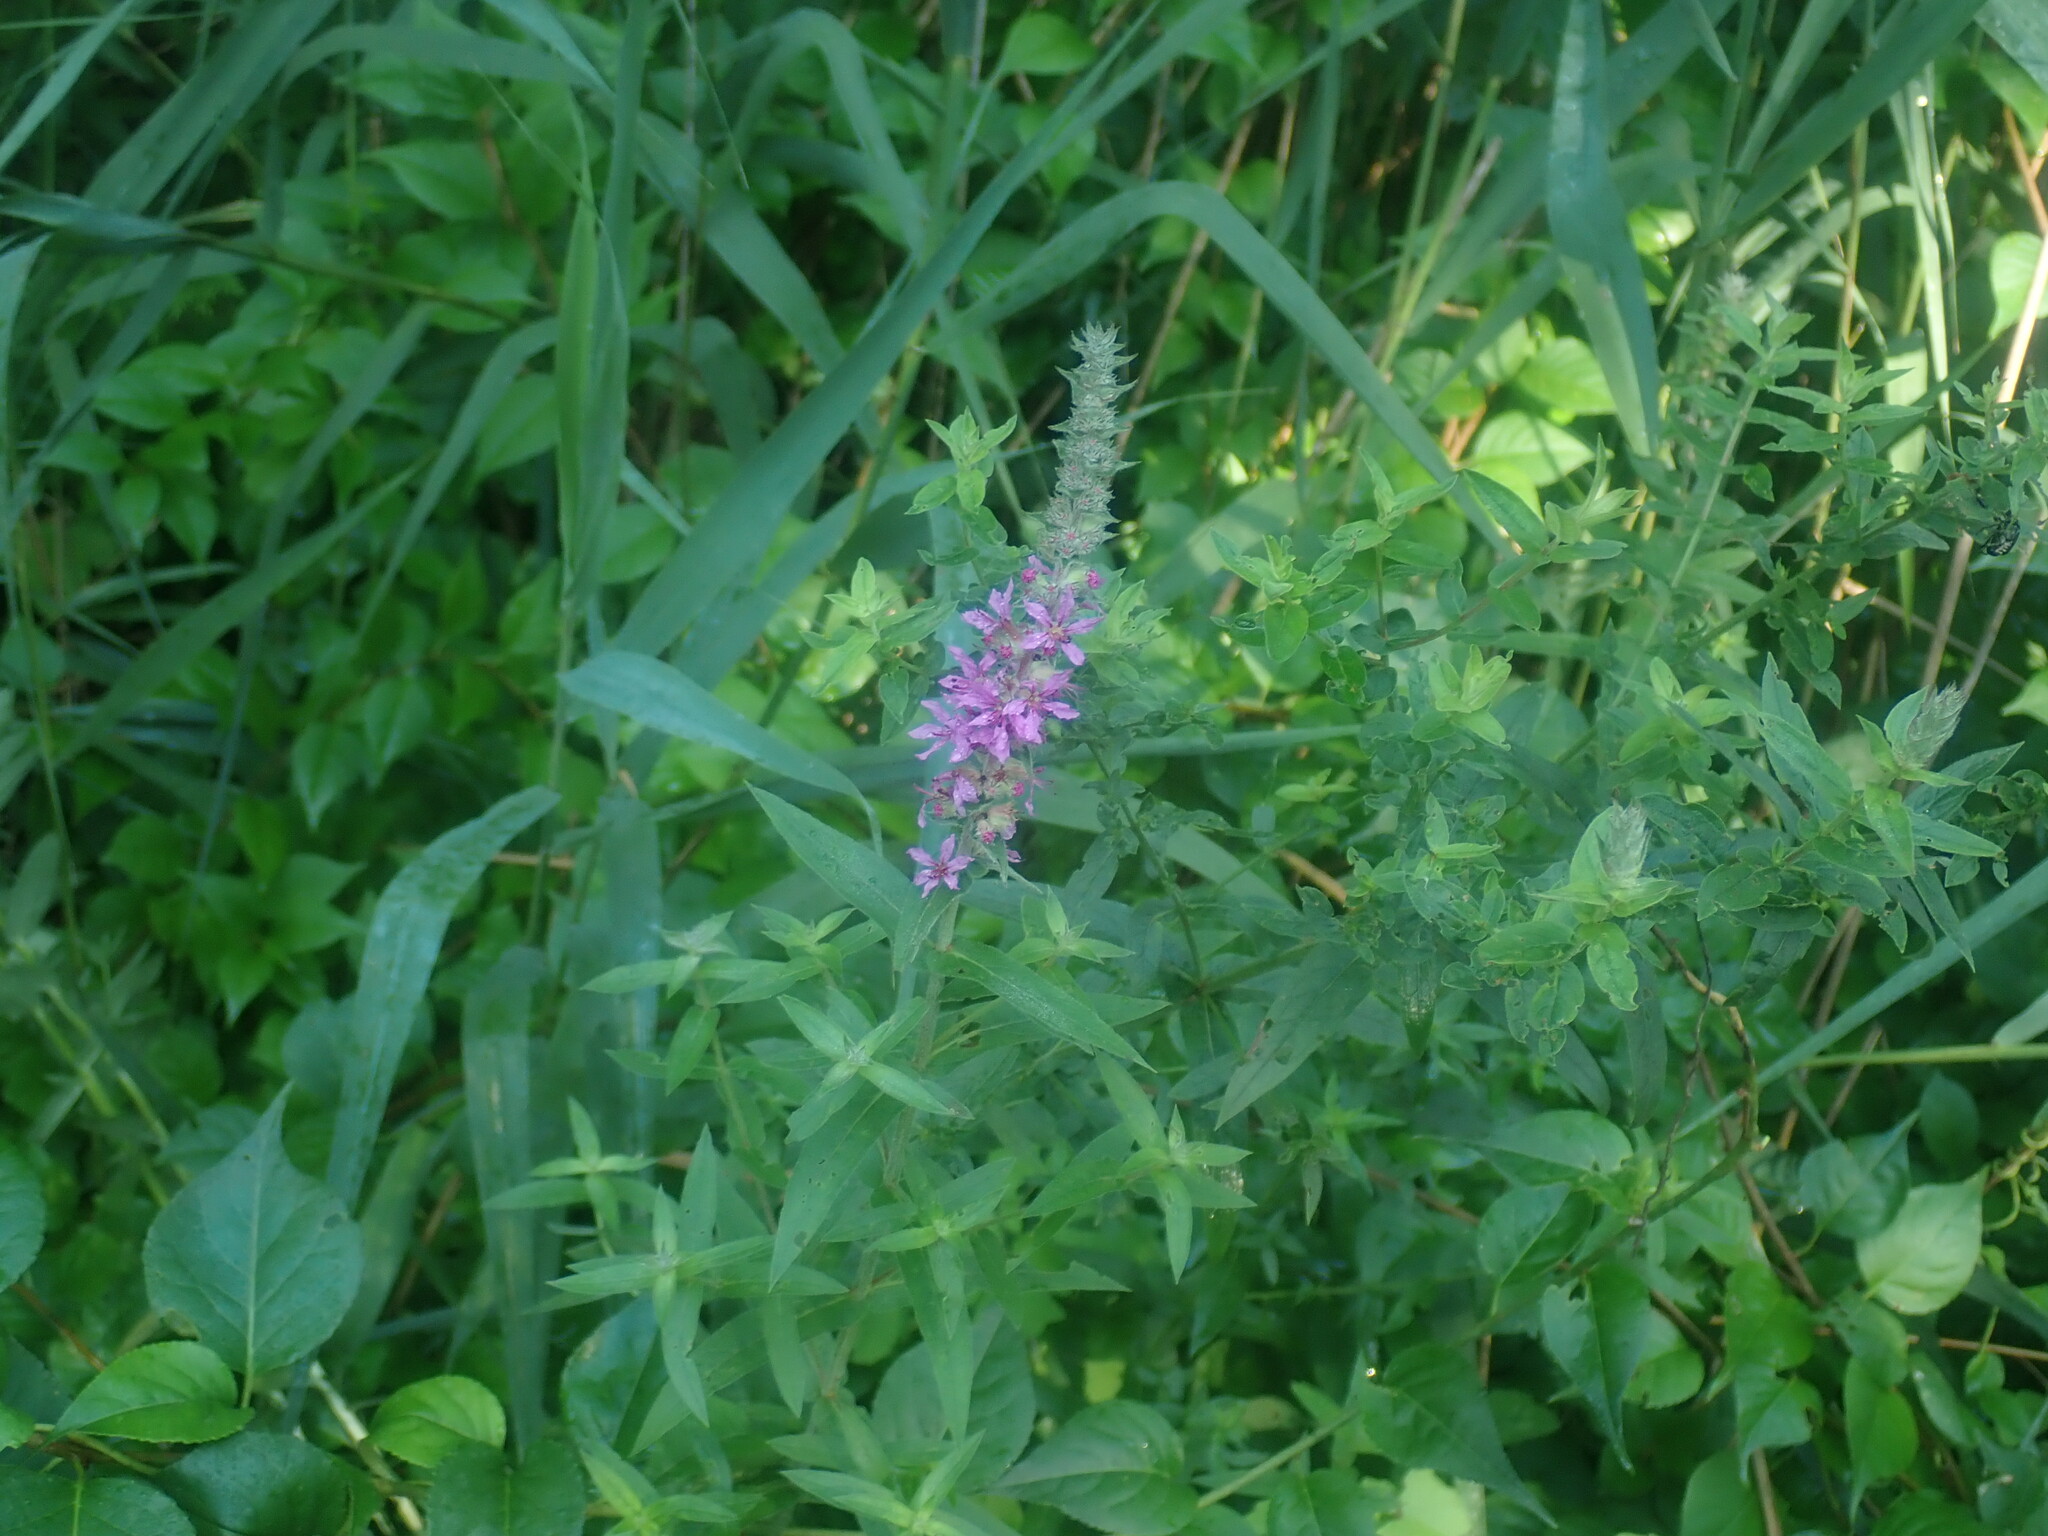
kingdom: Plantae
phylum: Tracheophyta
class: Magnoliopsida
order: Myrtales
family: Lythraceae
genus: Lythrum
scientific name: Lythrum salicaria
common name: Purple loosestrife
